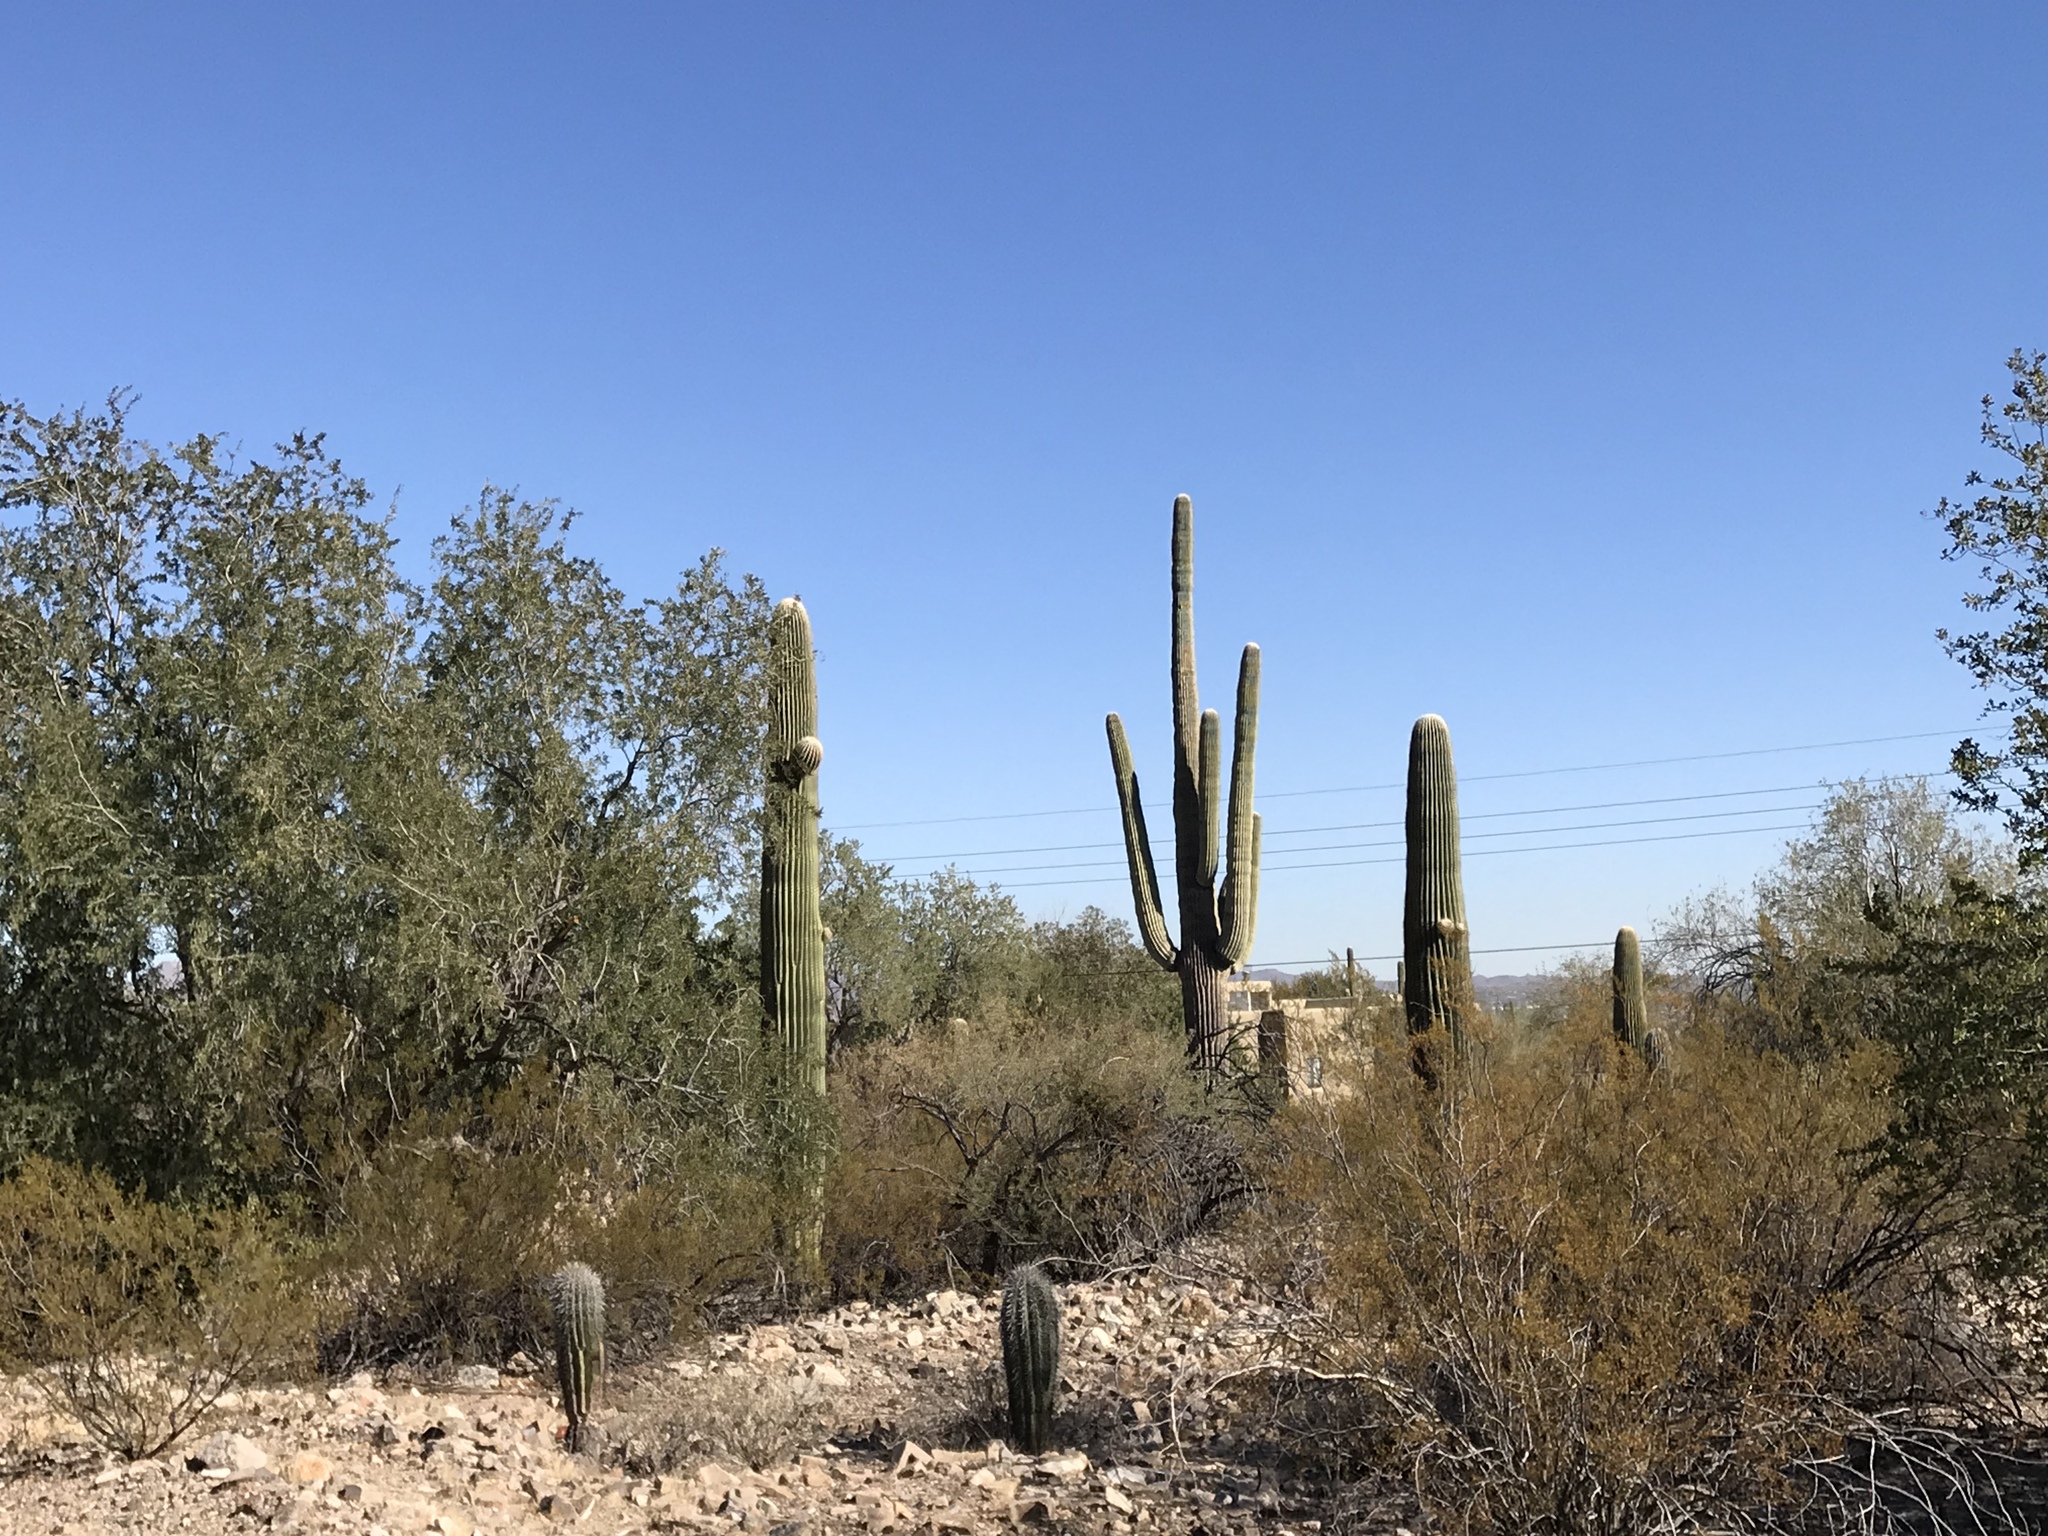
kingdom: Plantae
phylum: Tracheophyta
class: Magnoliopsida
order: Caryophyllales
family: Cactaceae
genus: Carnegiea
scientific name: Carnegiea gigantea
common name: Saguaro
